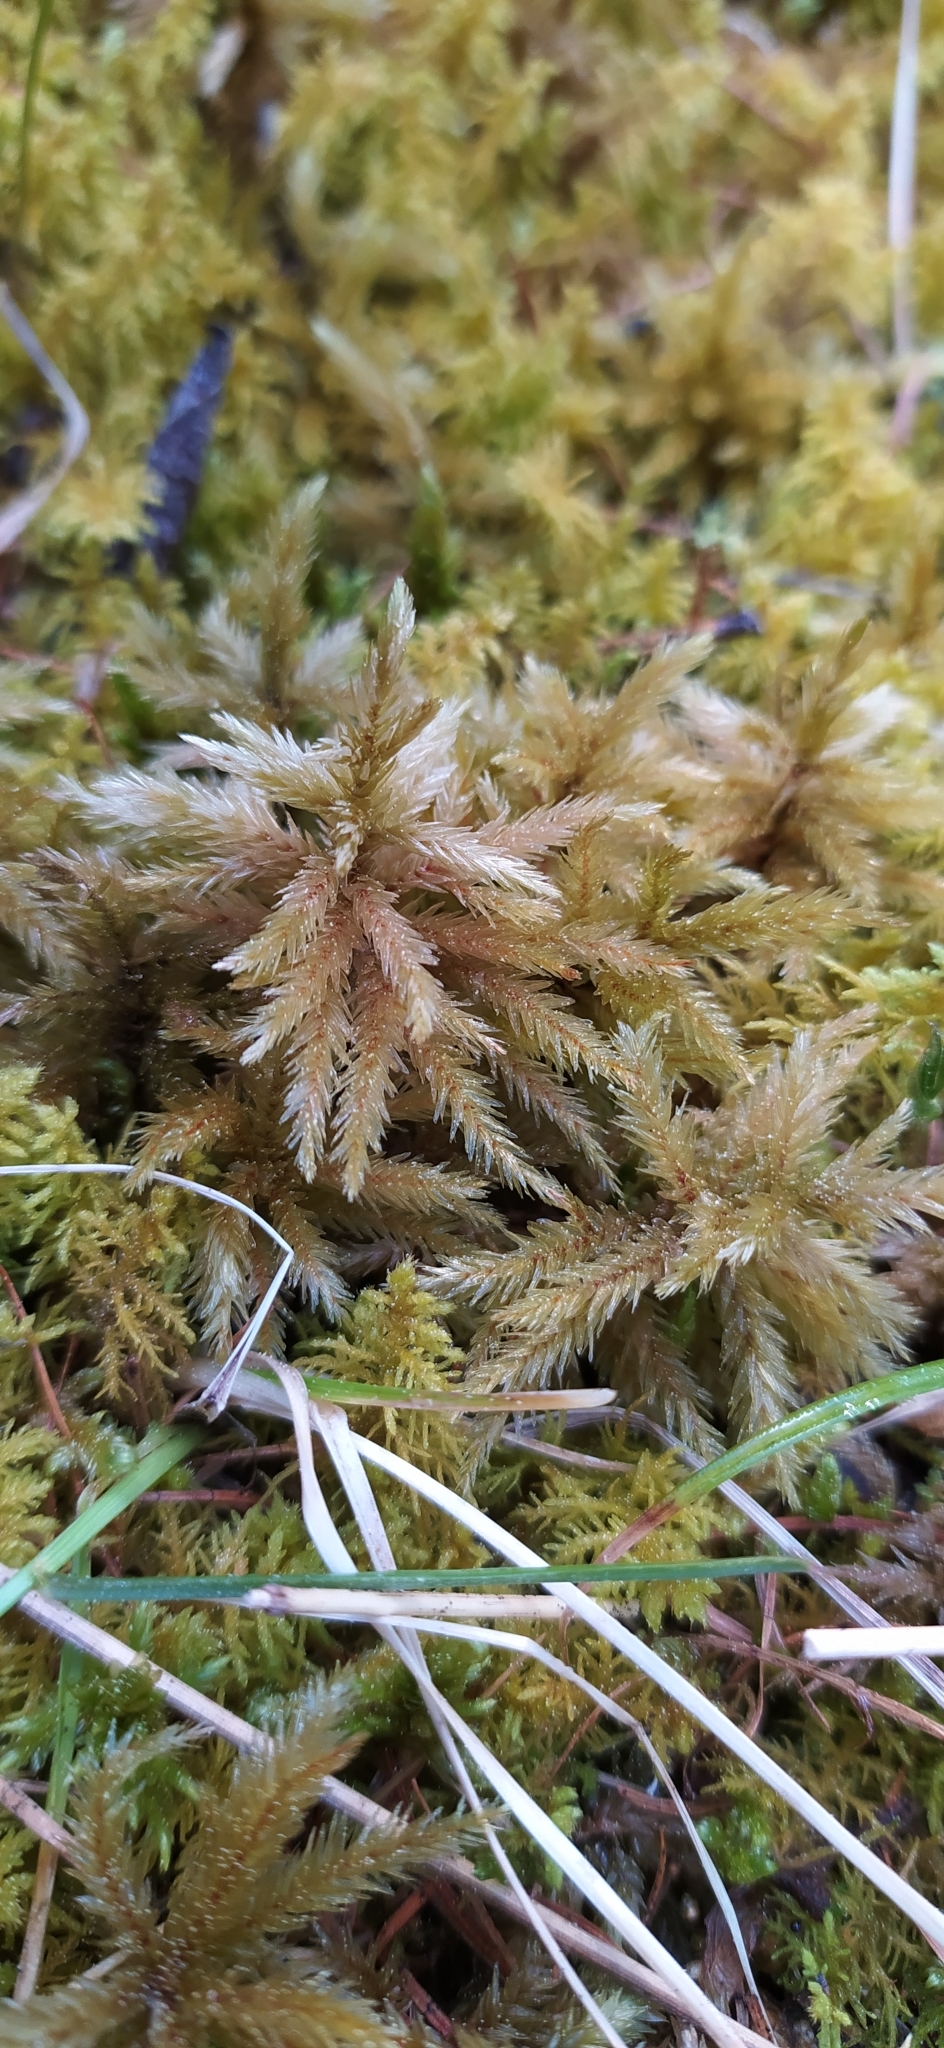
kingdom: Plantae
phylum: Bryophyta
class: Bryopsida
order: Hypnales
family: Climaciaceae
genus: Climacium
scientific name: Climacium dendroides
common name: Northern tree moss
